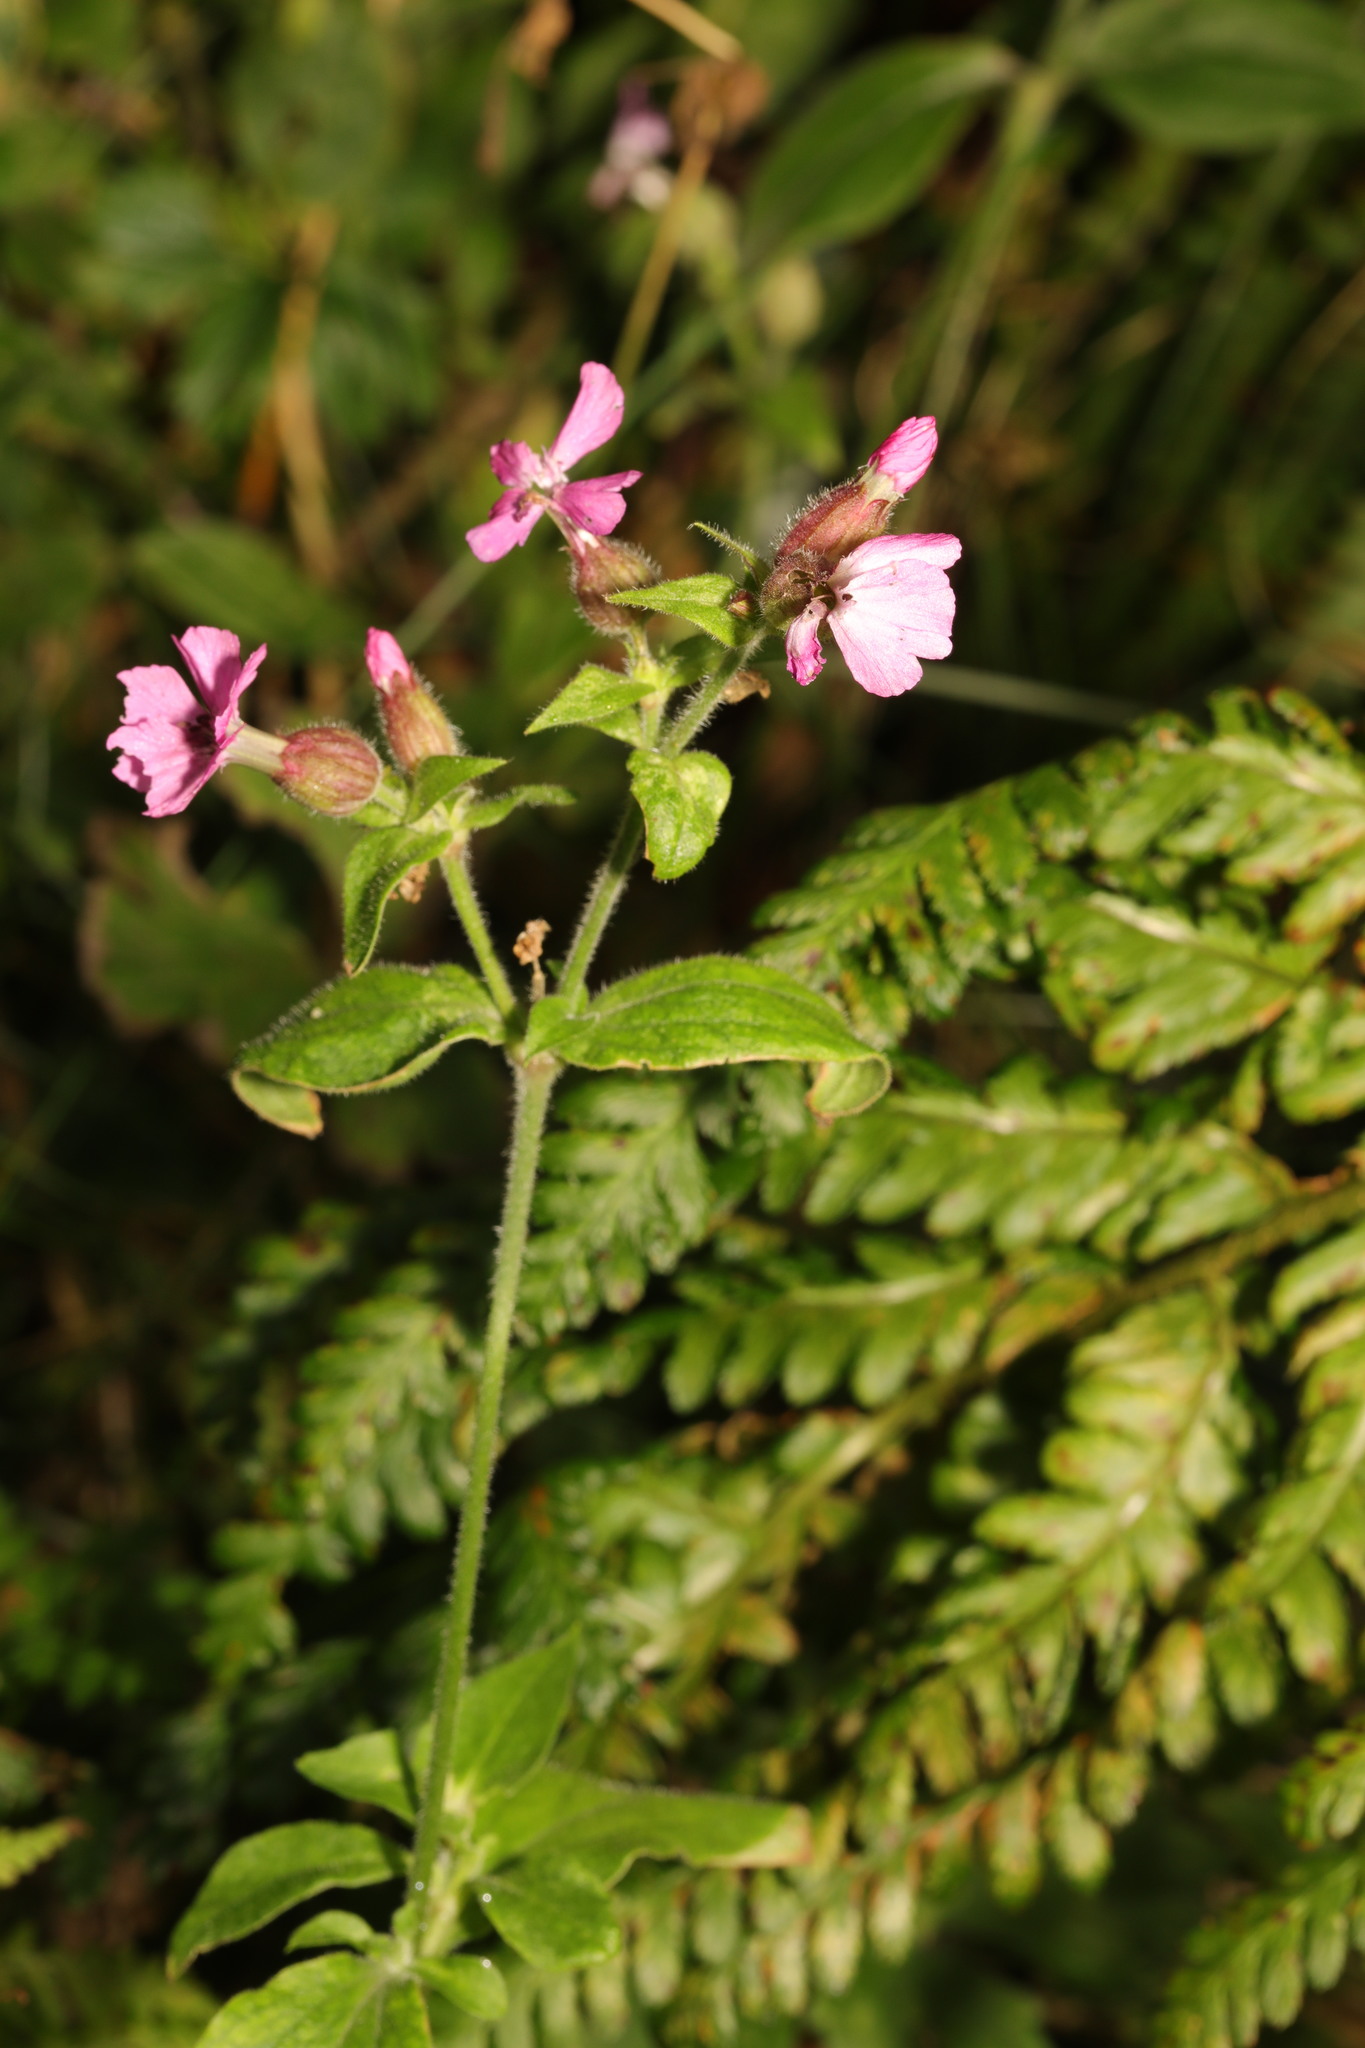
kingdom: Plantae
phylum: Tracheophyta
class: Magnoliopsida
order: Caryophyllales
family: Caryophyllaceae
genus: Silene
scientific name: Silene dioica
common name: Red campion
